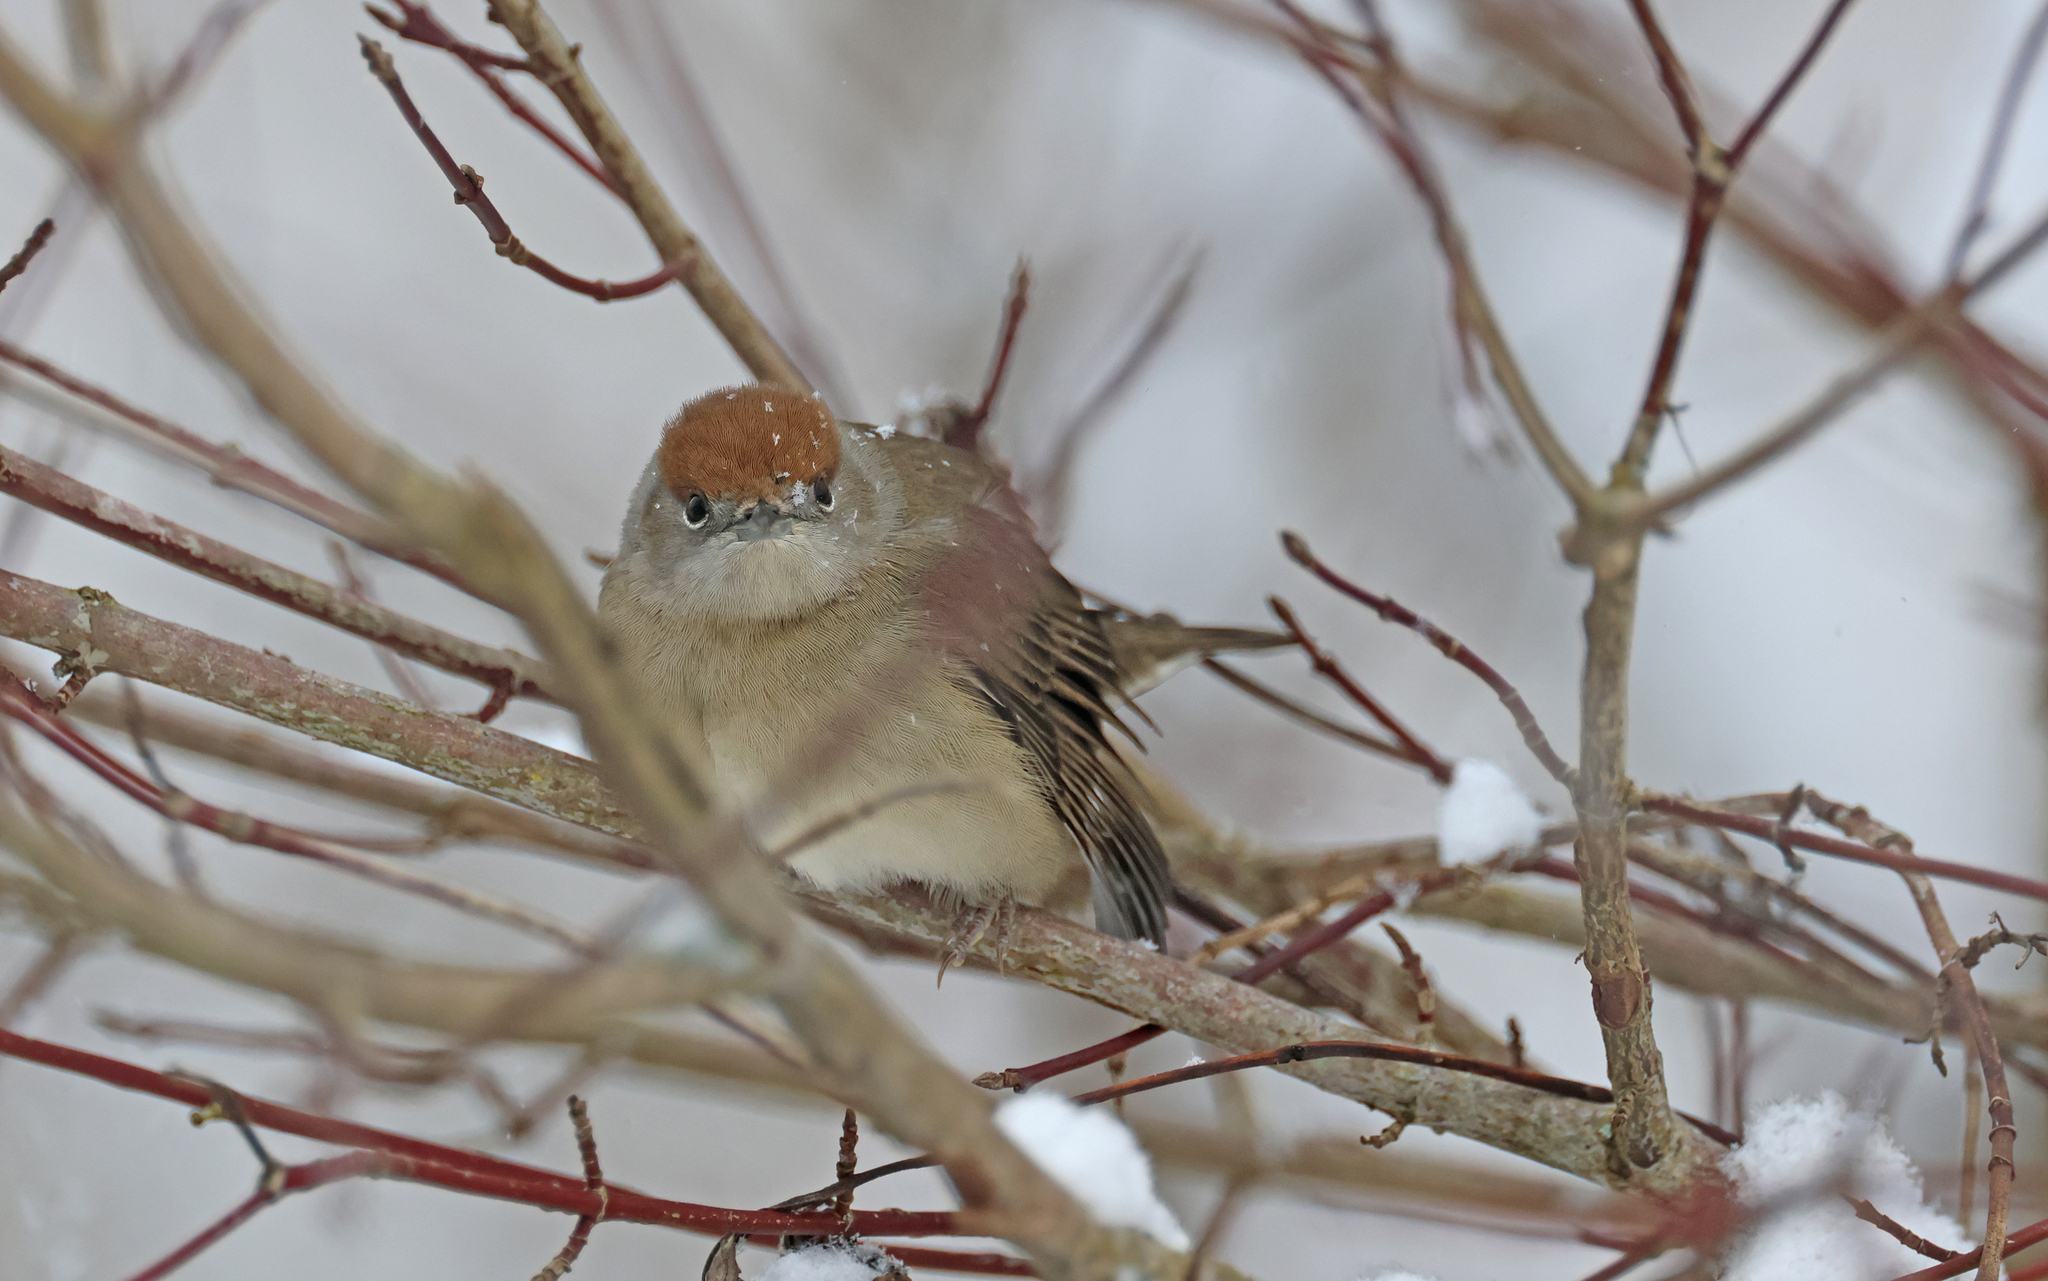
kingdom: Animalia
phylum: Chordata
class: Aves
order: Passeriformes
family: Sylviidae
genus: Sylvia
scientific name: Sylvia atricapilla
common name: Eurasian blackcap
